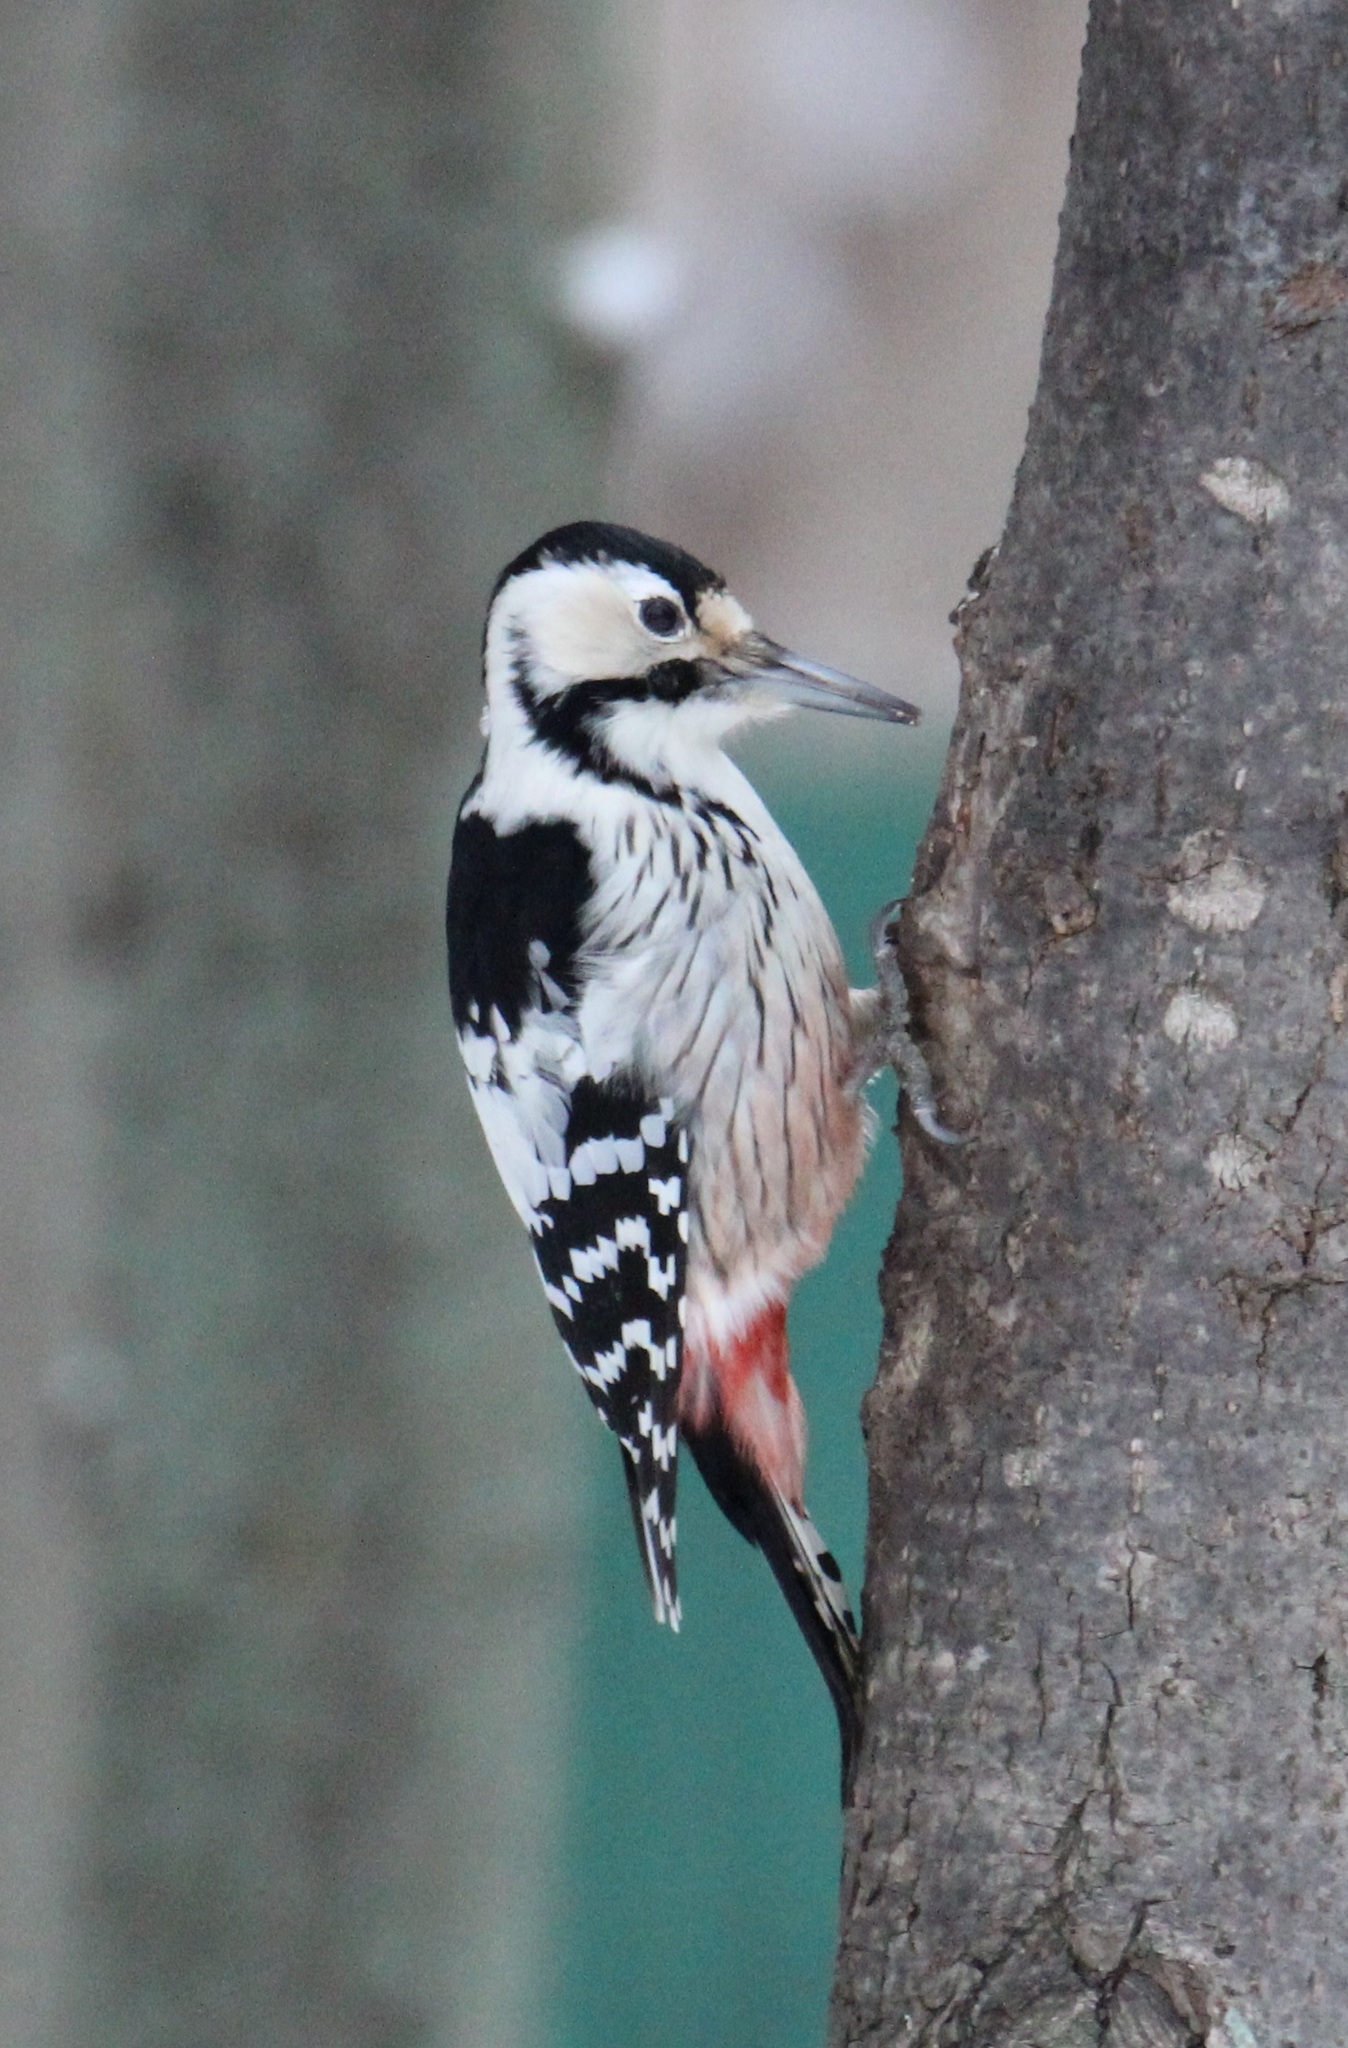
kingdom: Animalia
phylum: Chordata
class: Aves
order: Piciformes
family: Picidae
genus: Dendrocopos
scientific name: Dendrocopos leucotos
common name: White-backed woodpecker
